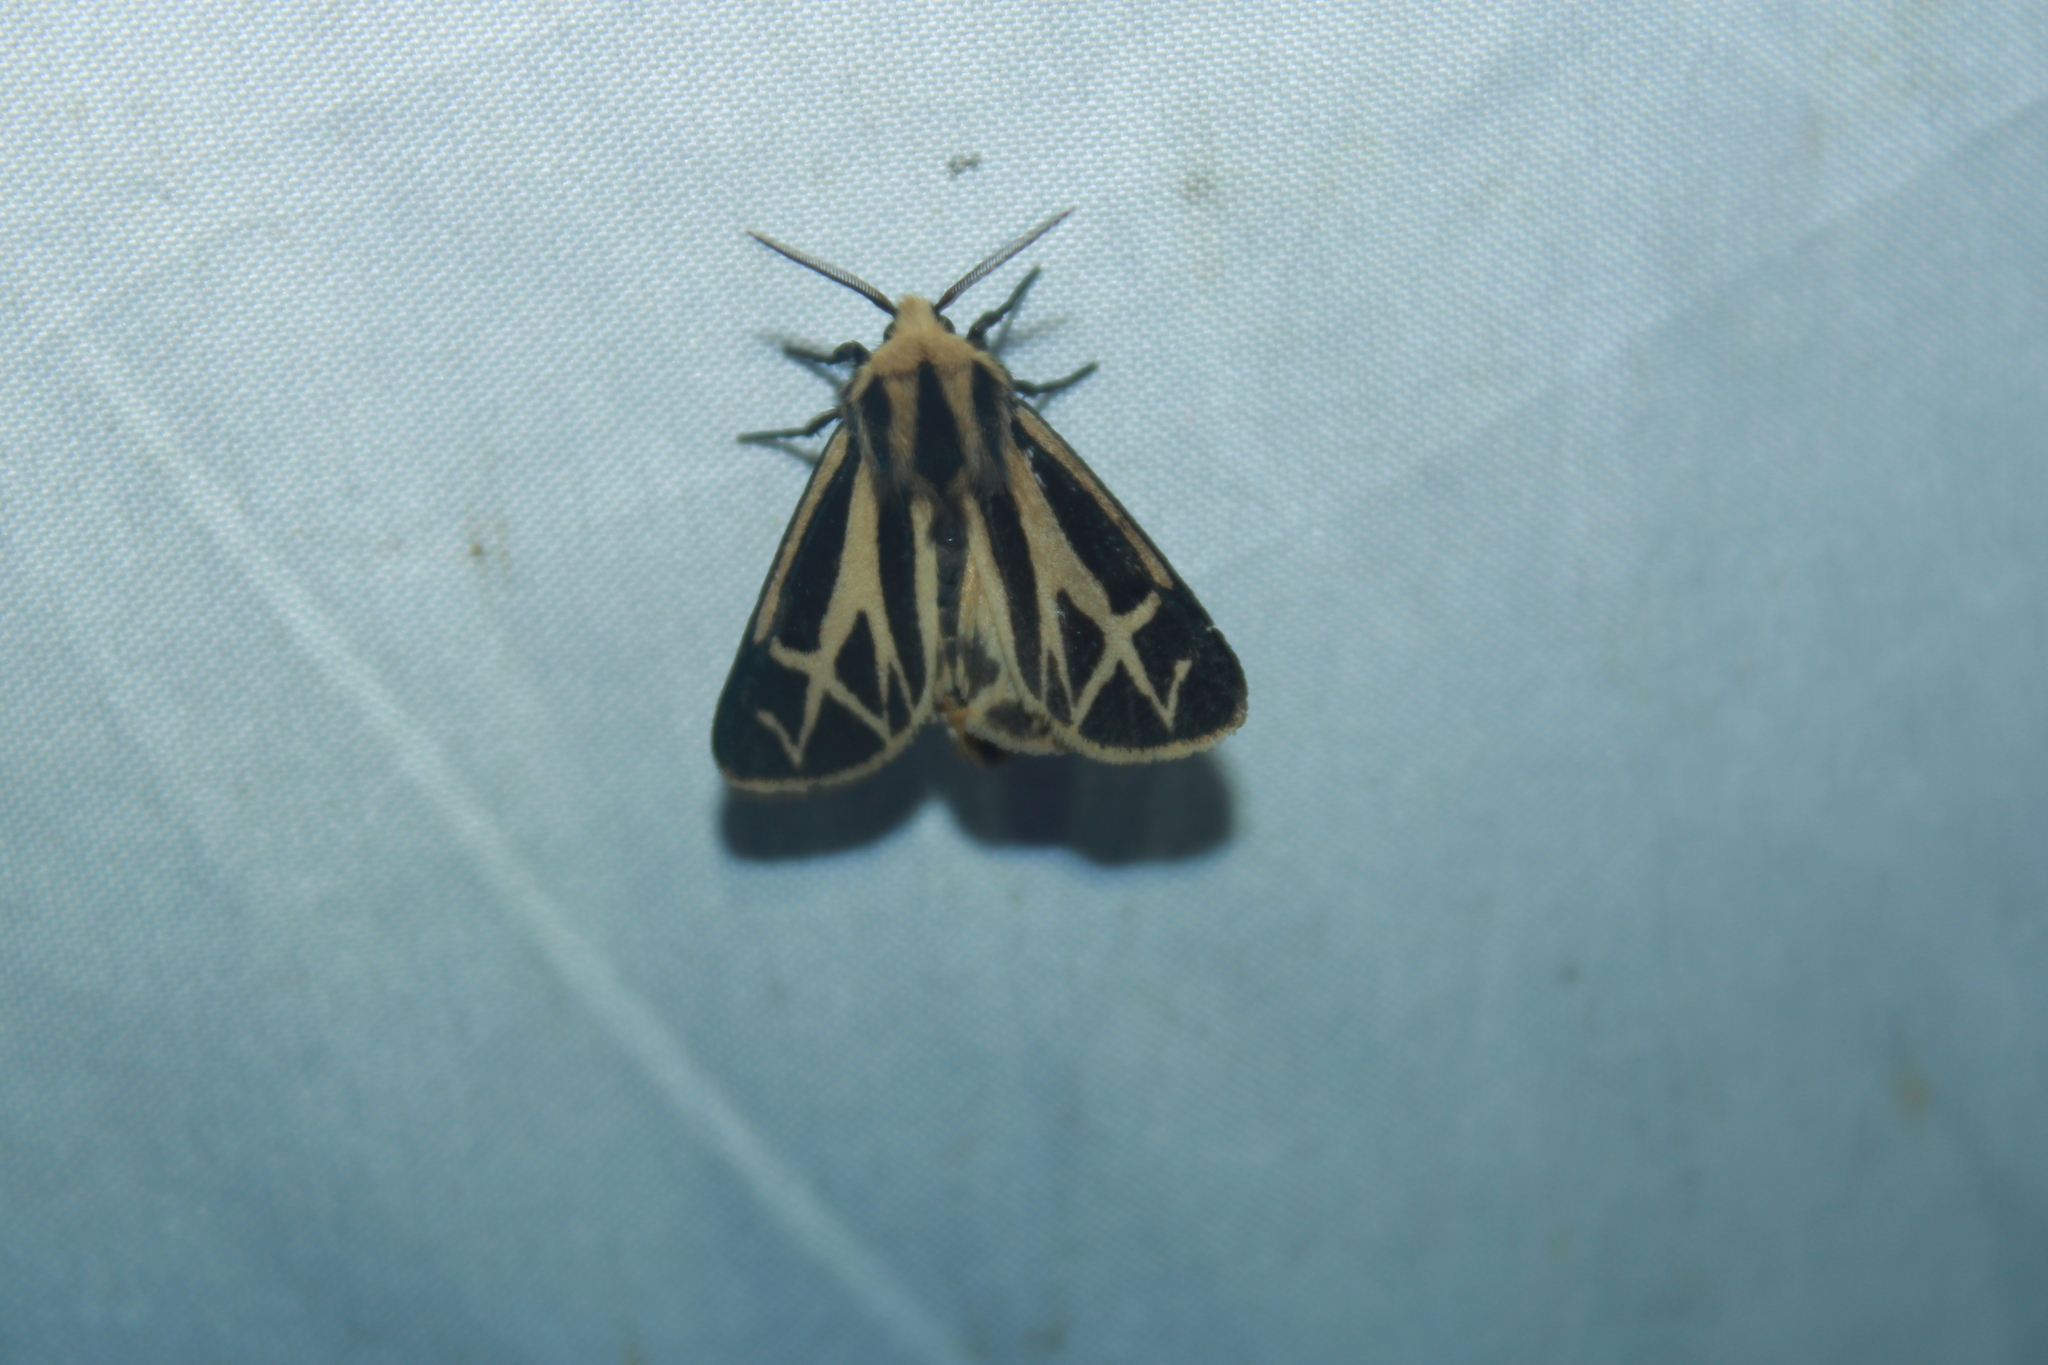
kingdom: Animalia
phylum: Arthropoda
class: Insecta
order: Lepidoptera
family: Erebidae
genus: Apantesis
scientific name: Apantesis carlotta
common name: Carlotta's tiger moth
